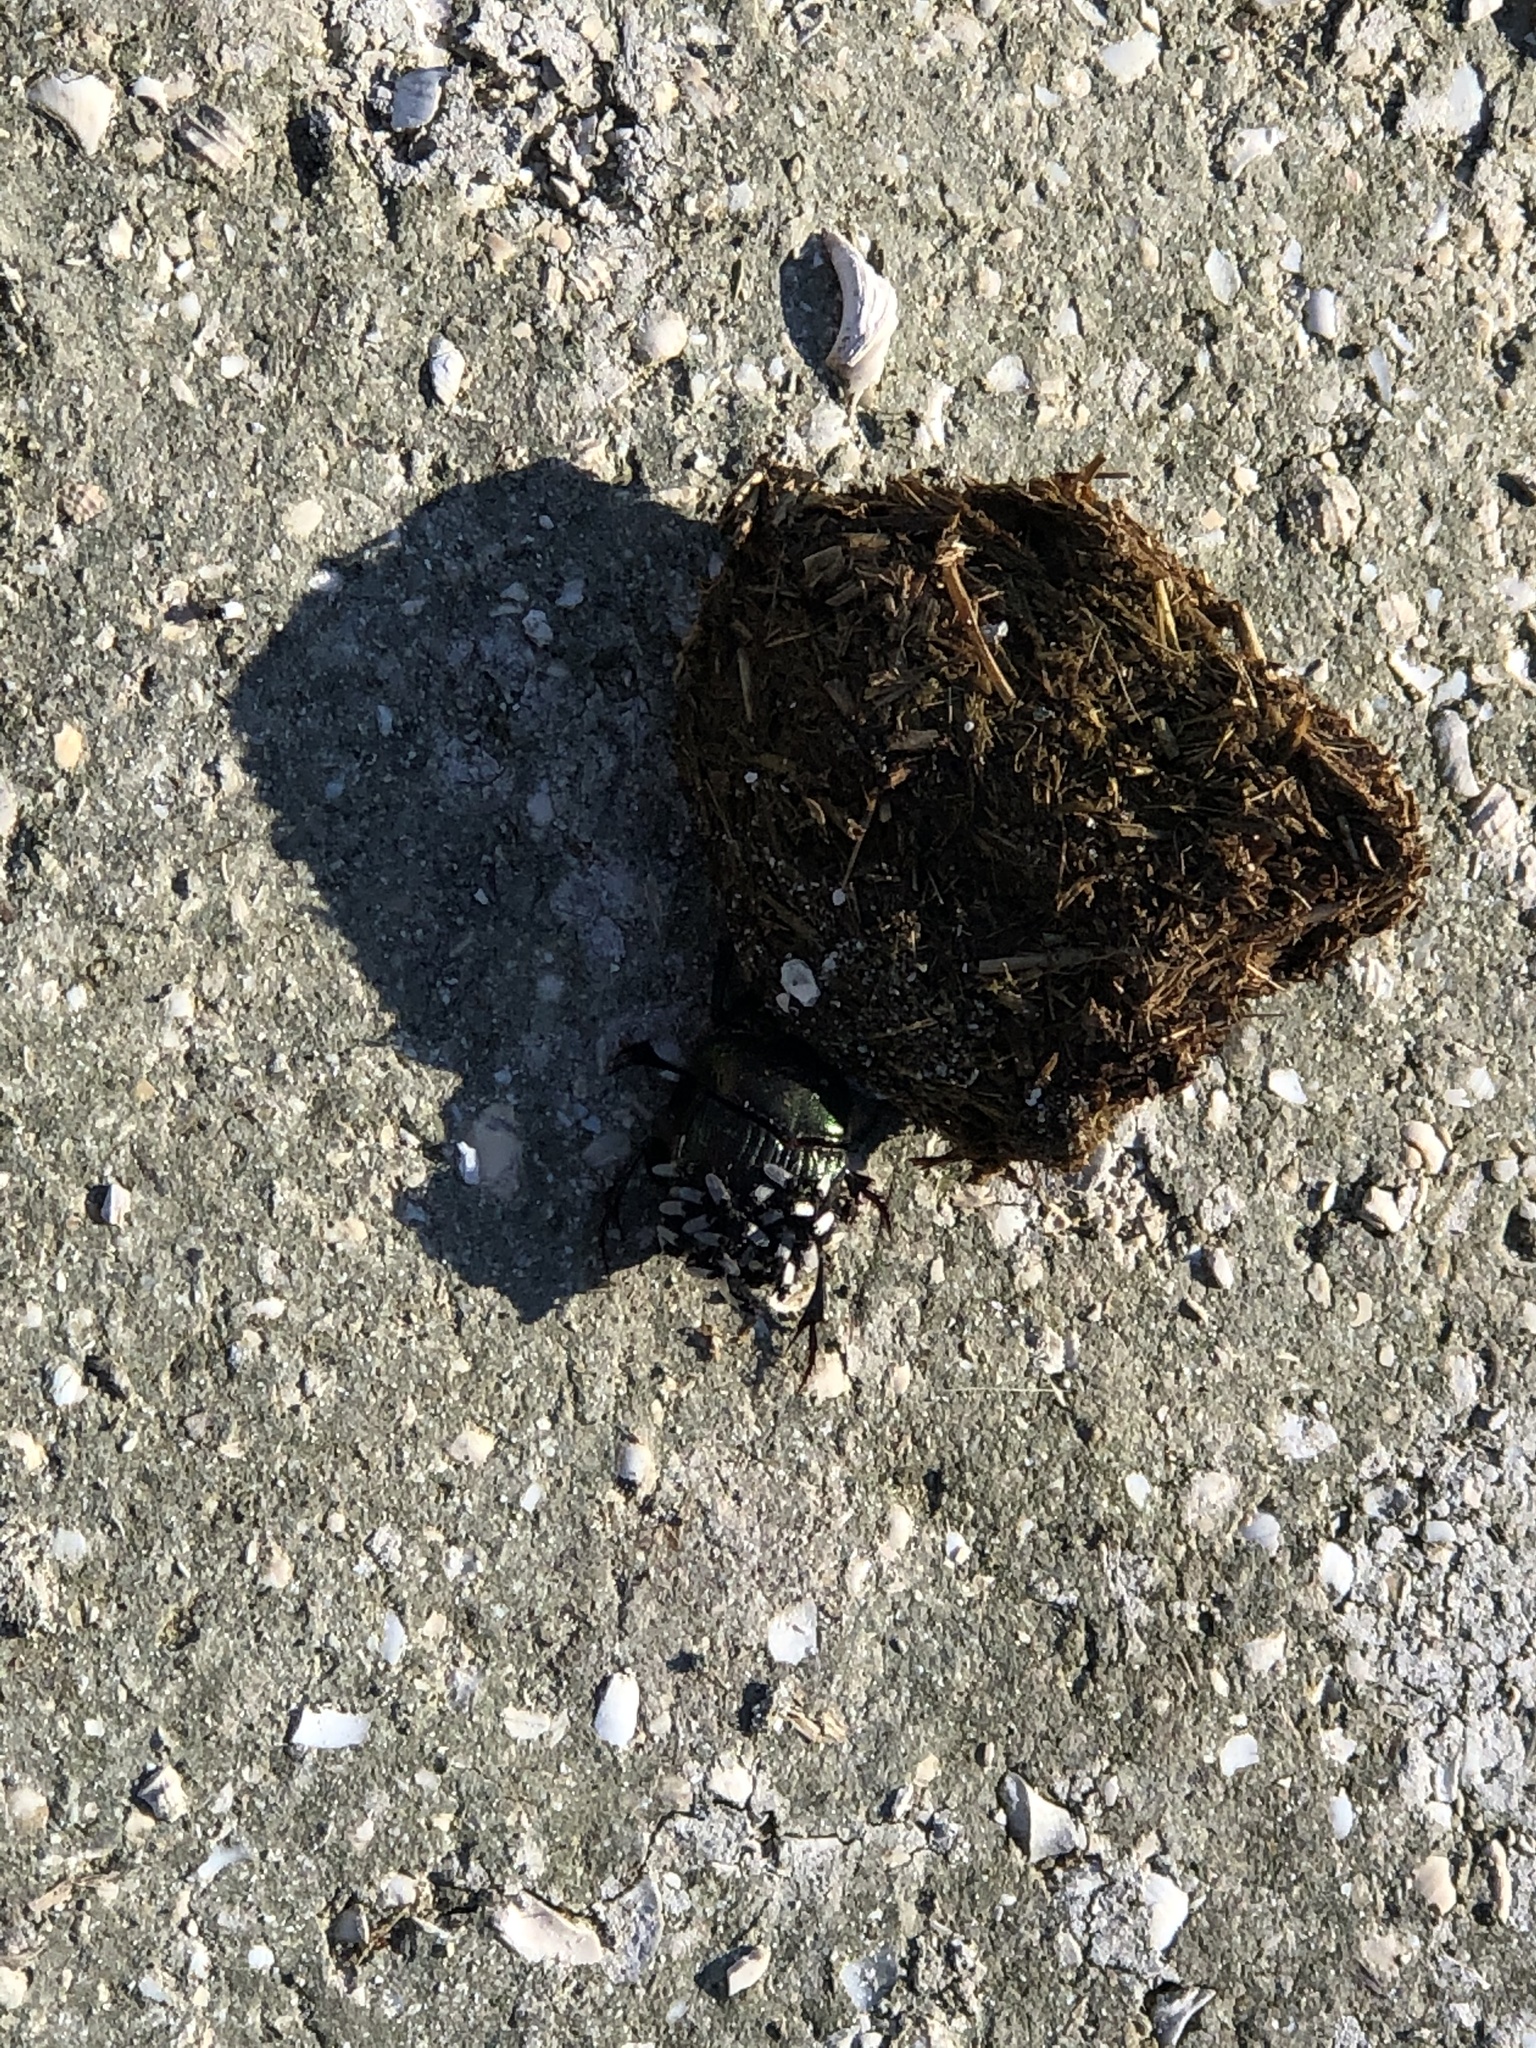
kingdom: Animalia
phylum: Arthropoda
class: Insecta
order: Coleoptera
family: Scarabaeidae
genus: Phanaeus
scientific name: Phanaeus igneus
